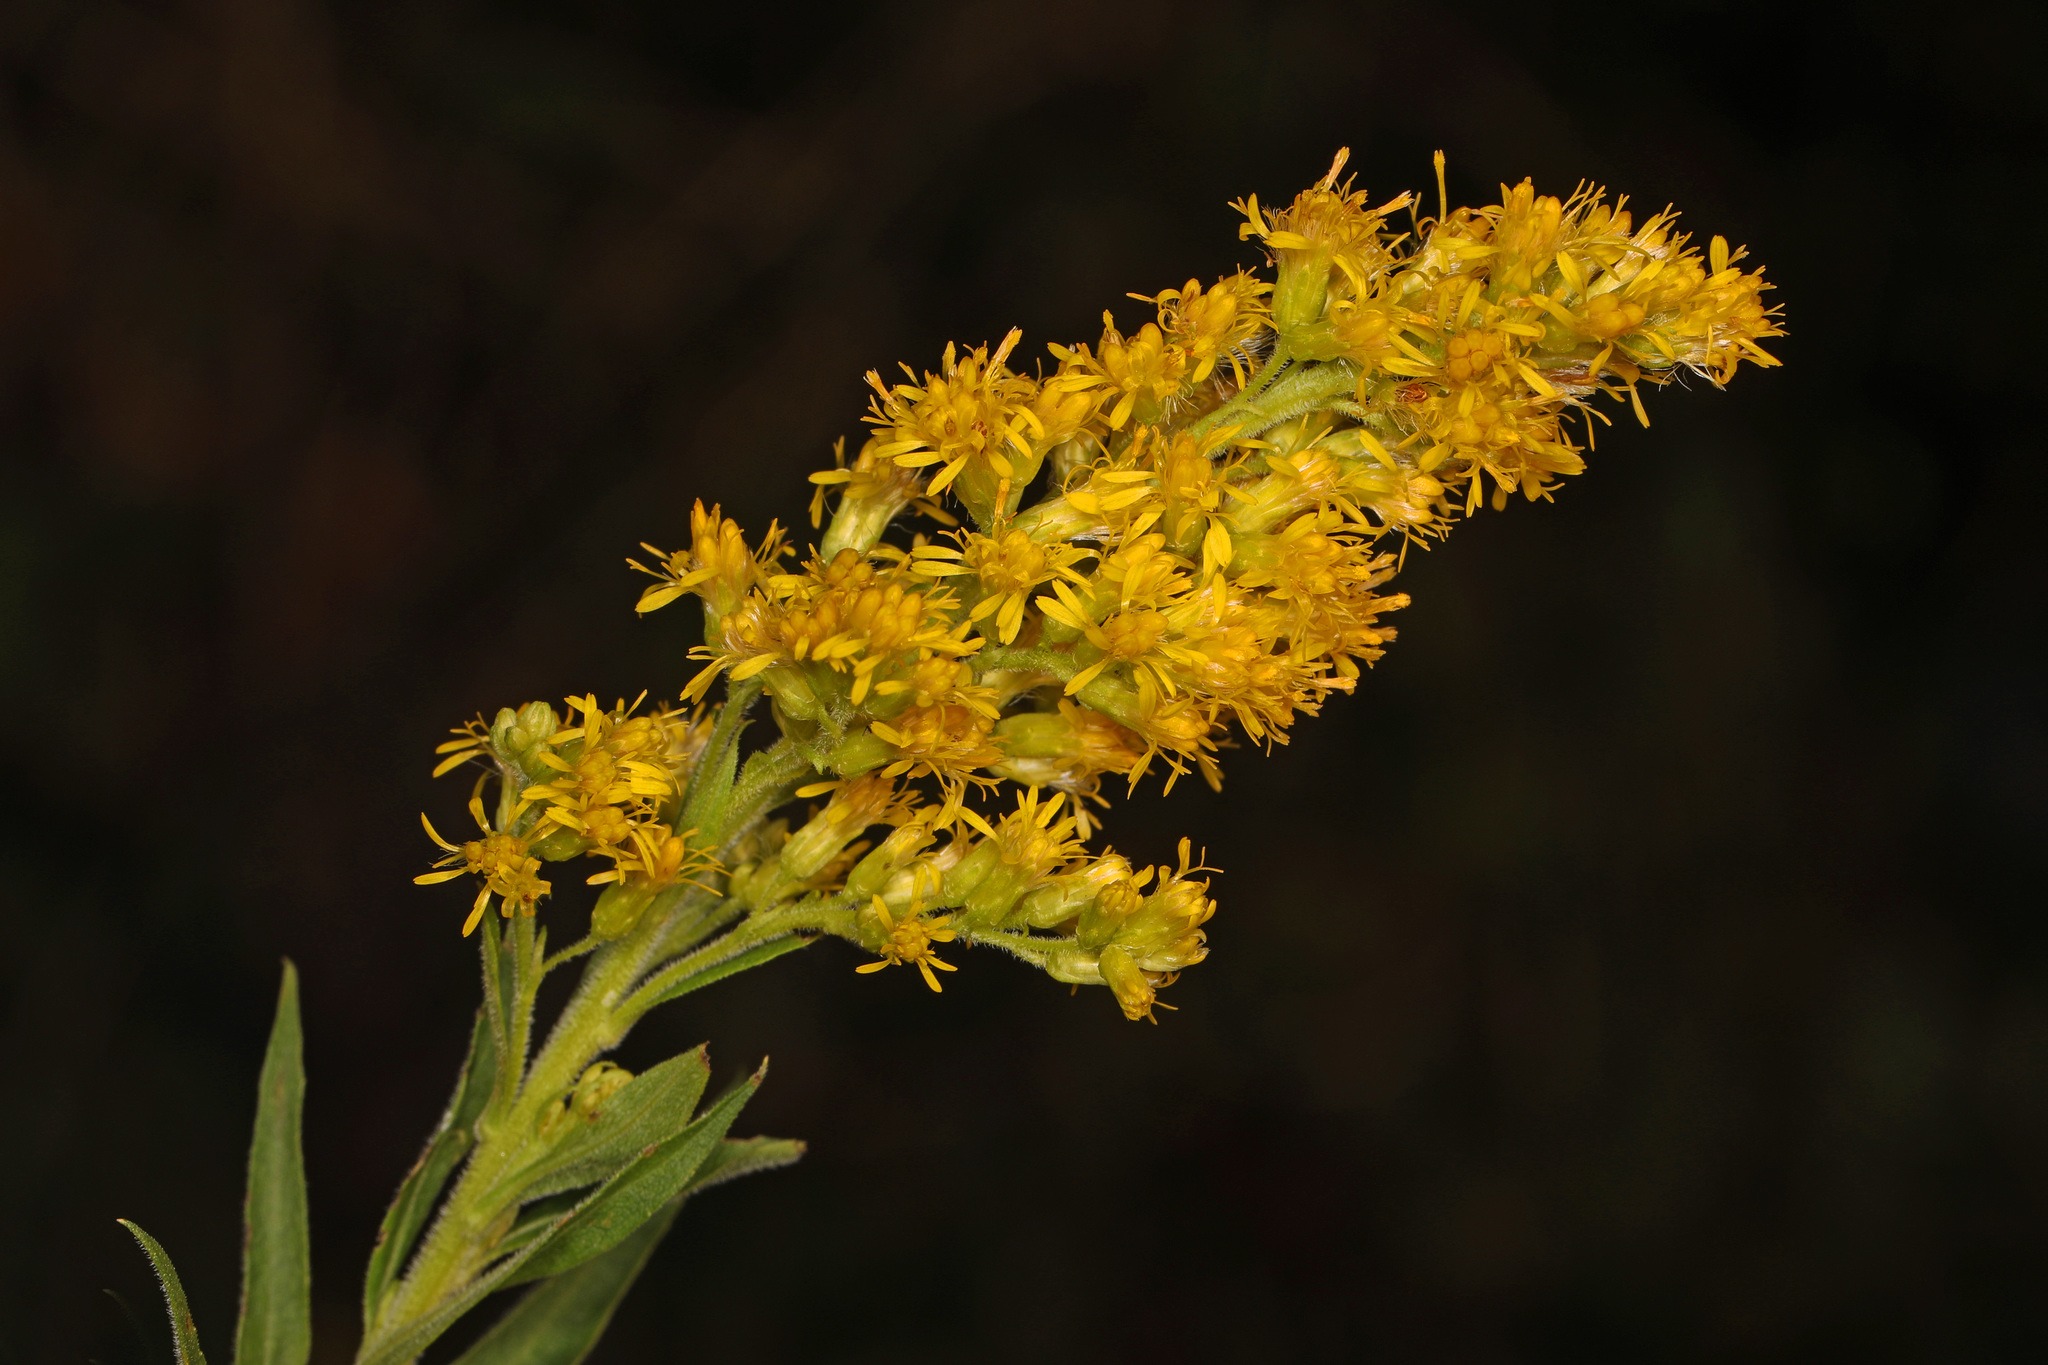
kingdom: Plantae
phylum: Tracheophyta
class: Magnoliopsida
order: Asterales
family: Asteraceae
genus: Solidago
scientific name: Solidago nemoralis
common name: Grey goldenrod
